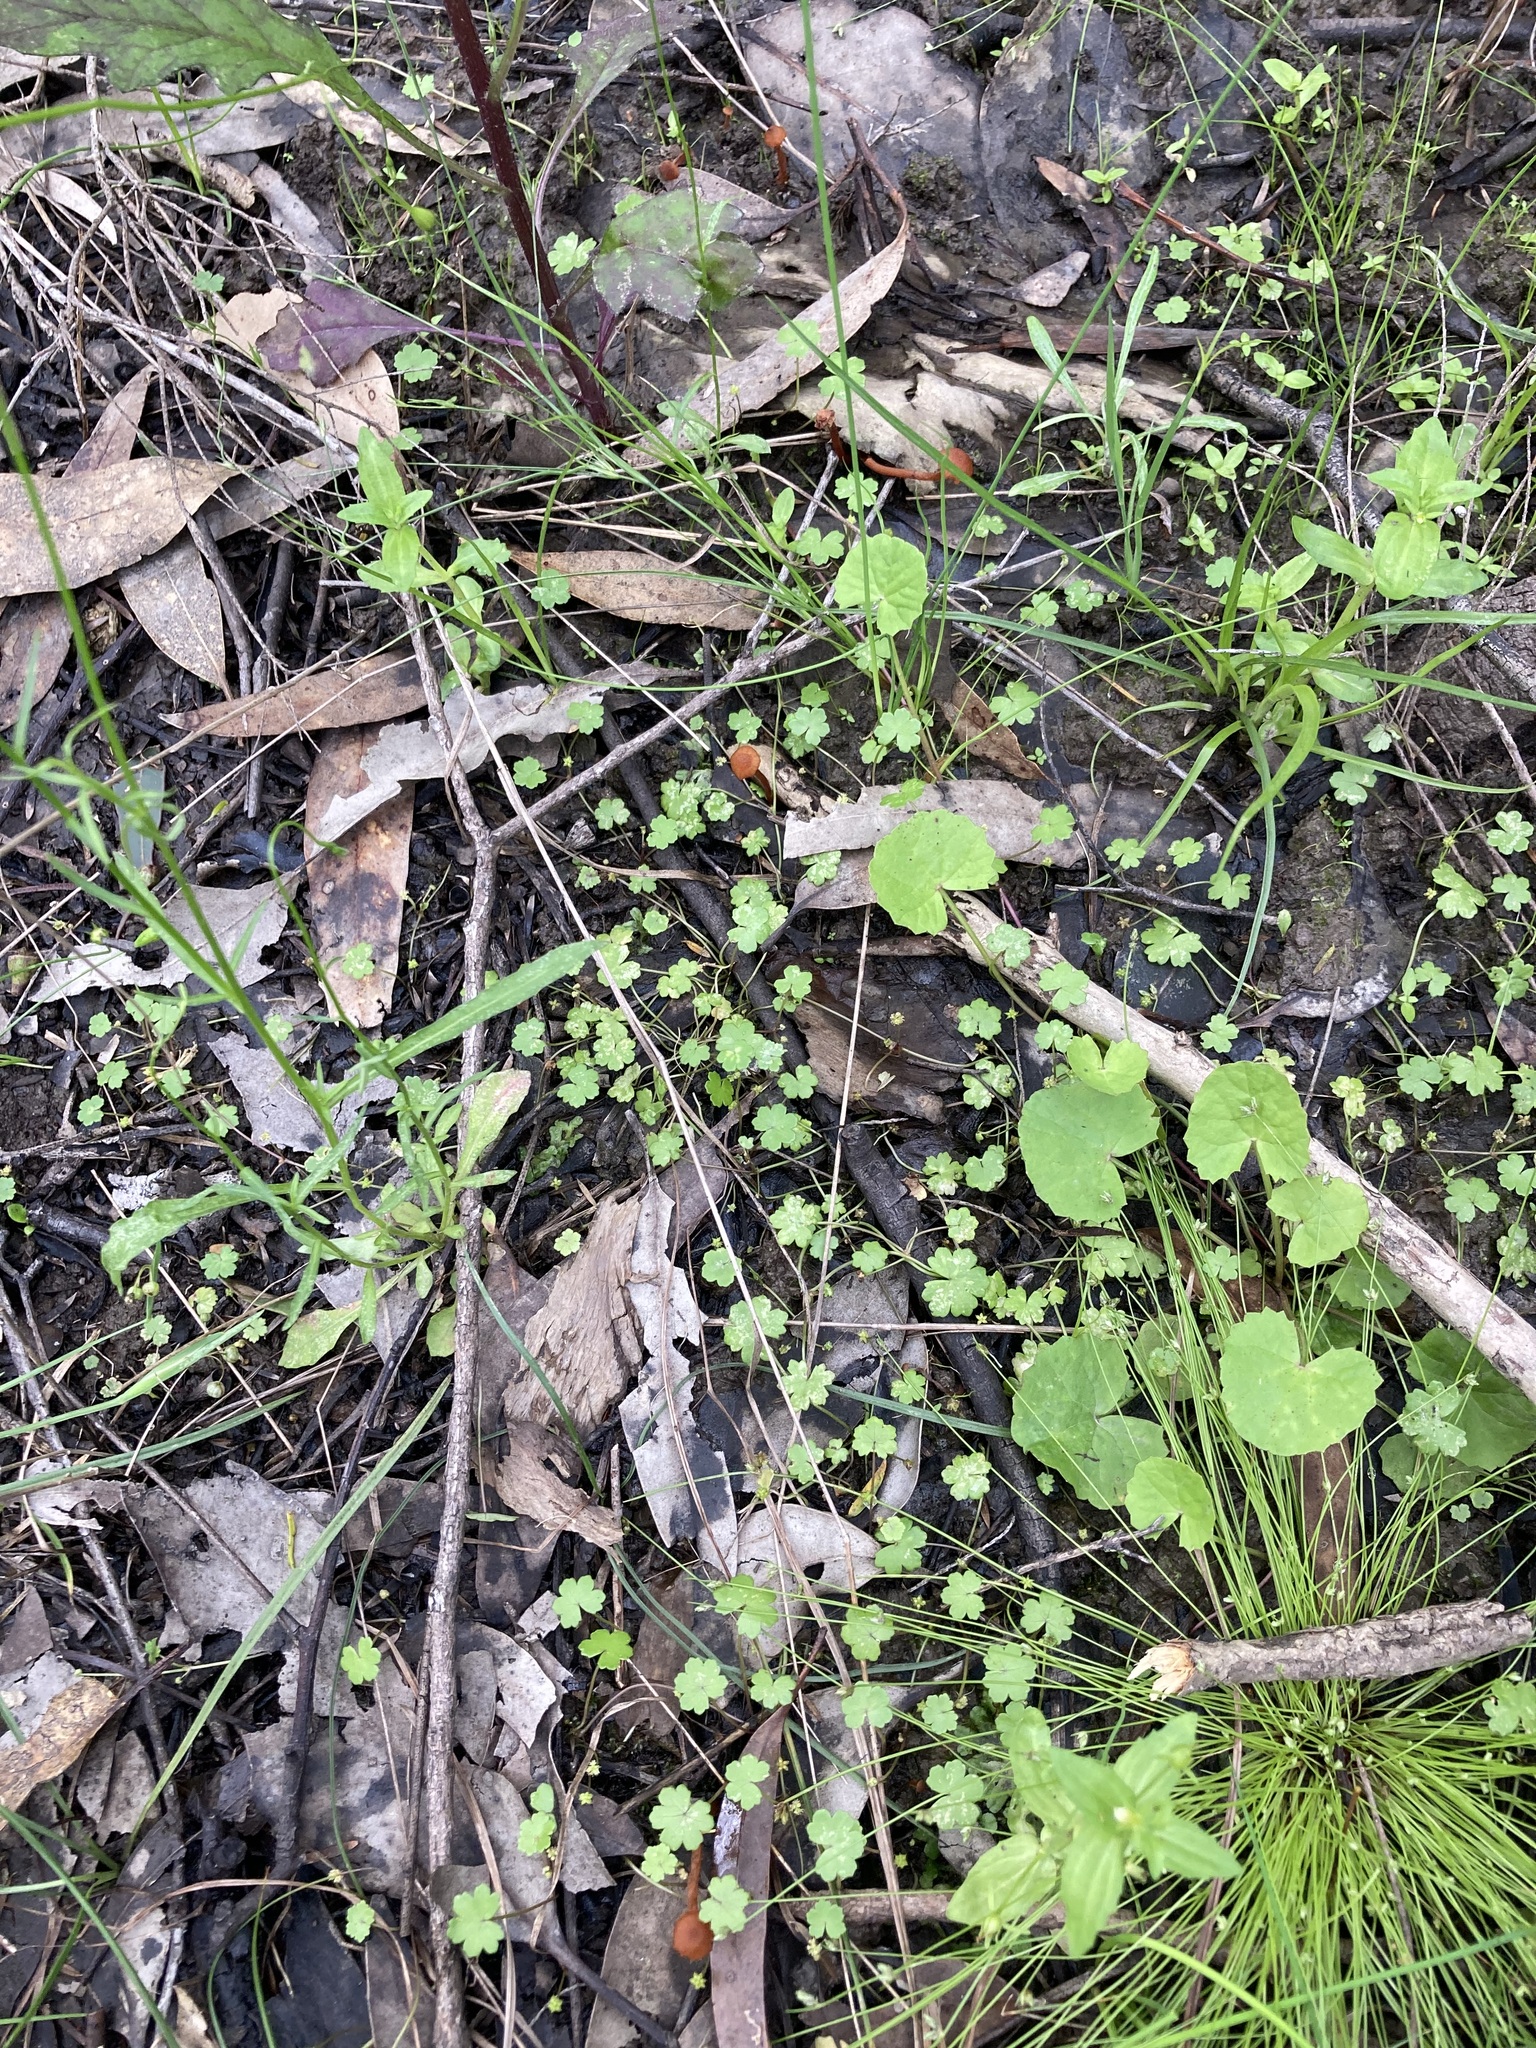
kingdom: Plantae
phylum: Tracheophyta
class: Magnoliopsida
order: Apiales
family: Araliaceae
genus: Hydrocotyle
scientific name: Hydrocotyle sibthorpioides
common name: Lawn marshpennywort
